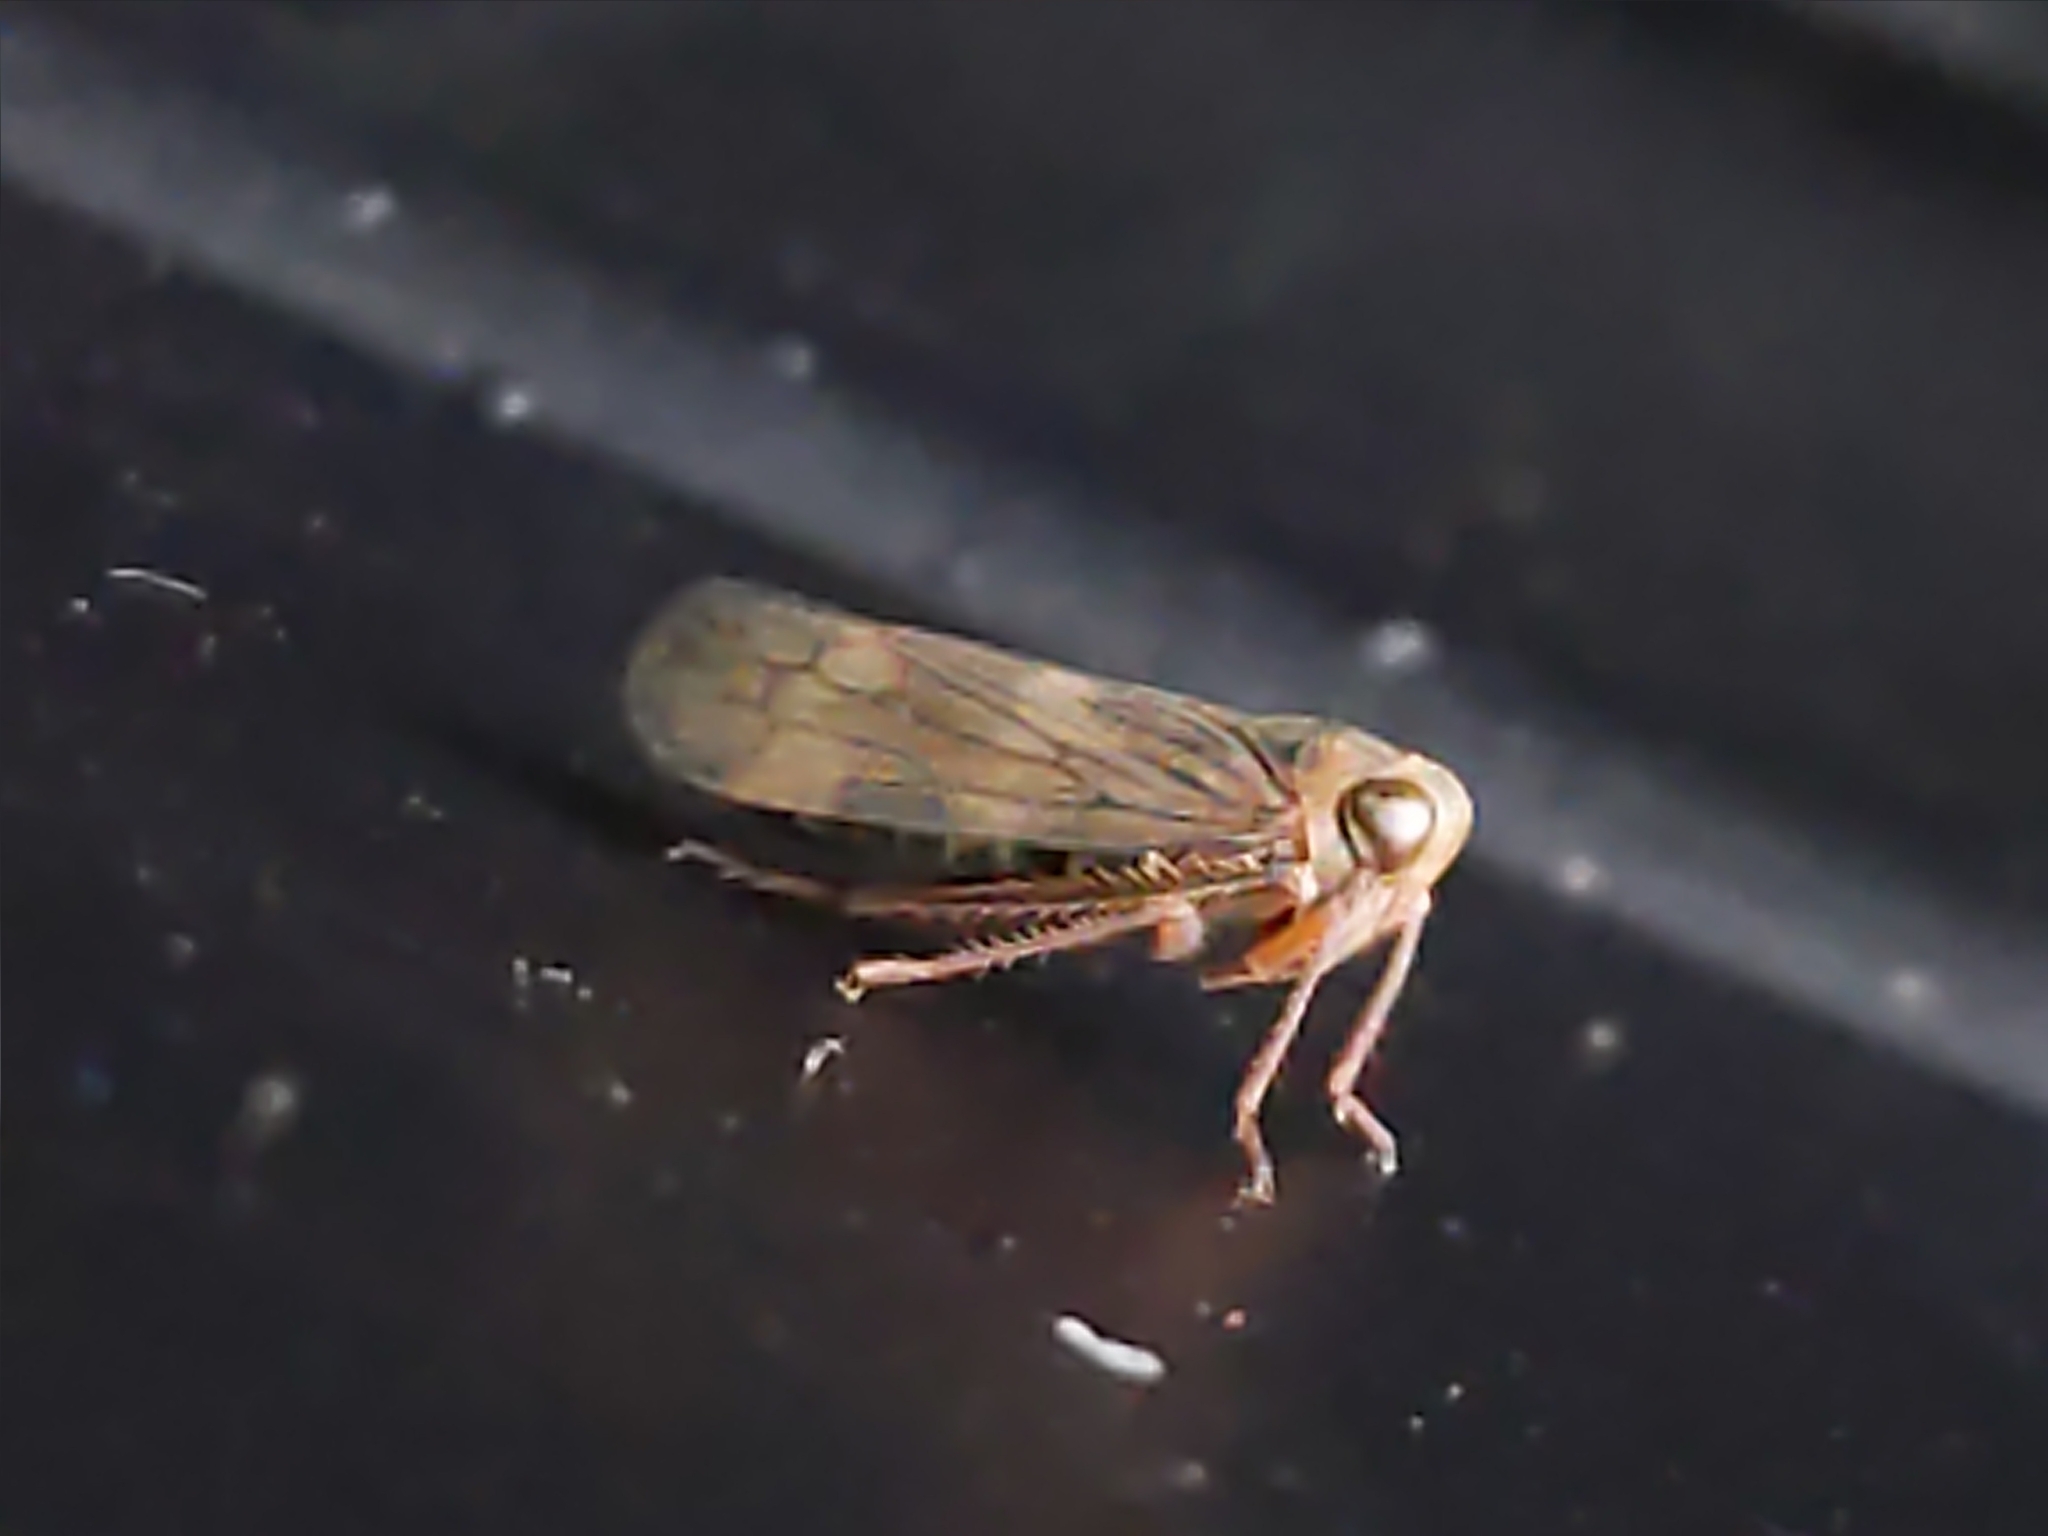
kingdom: Animalia
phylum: Arthropoda
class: Insecta
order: Hemiptera
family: Cicadellidae
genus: Jikradia
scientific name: Jikradia olitoria
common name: Coppery leafhopper
